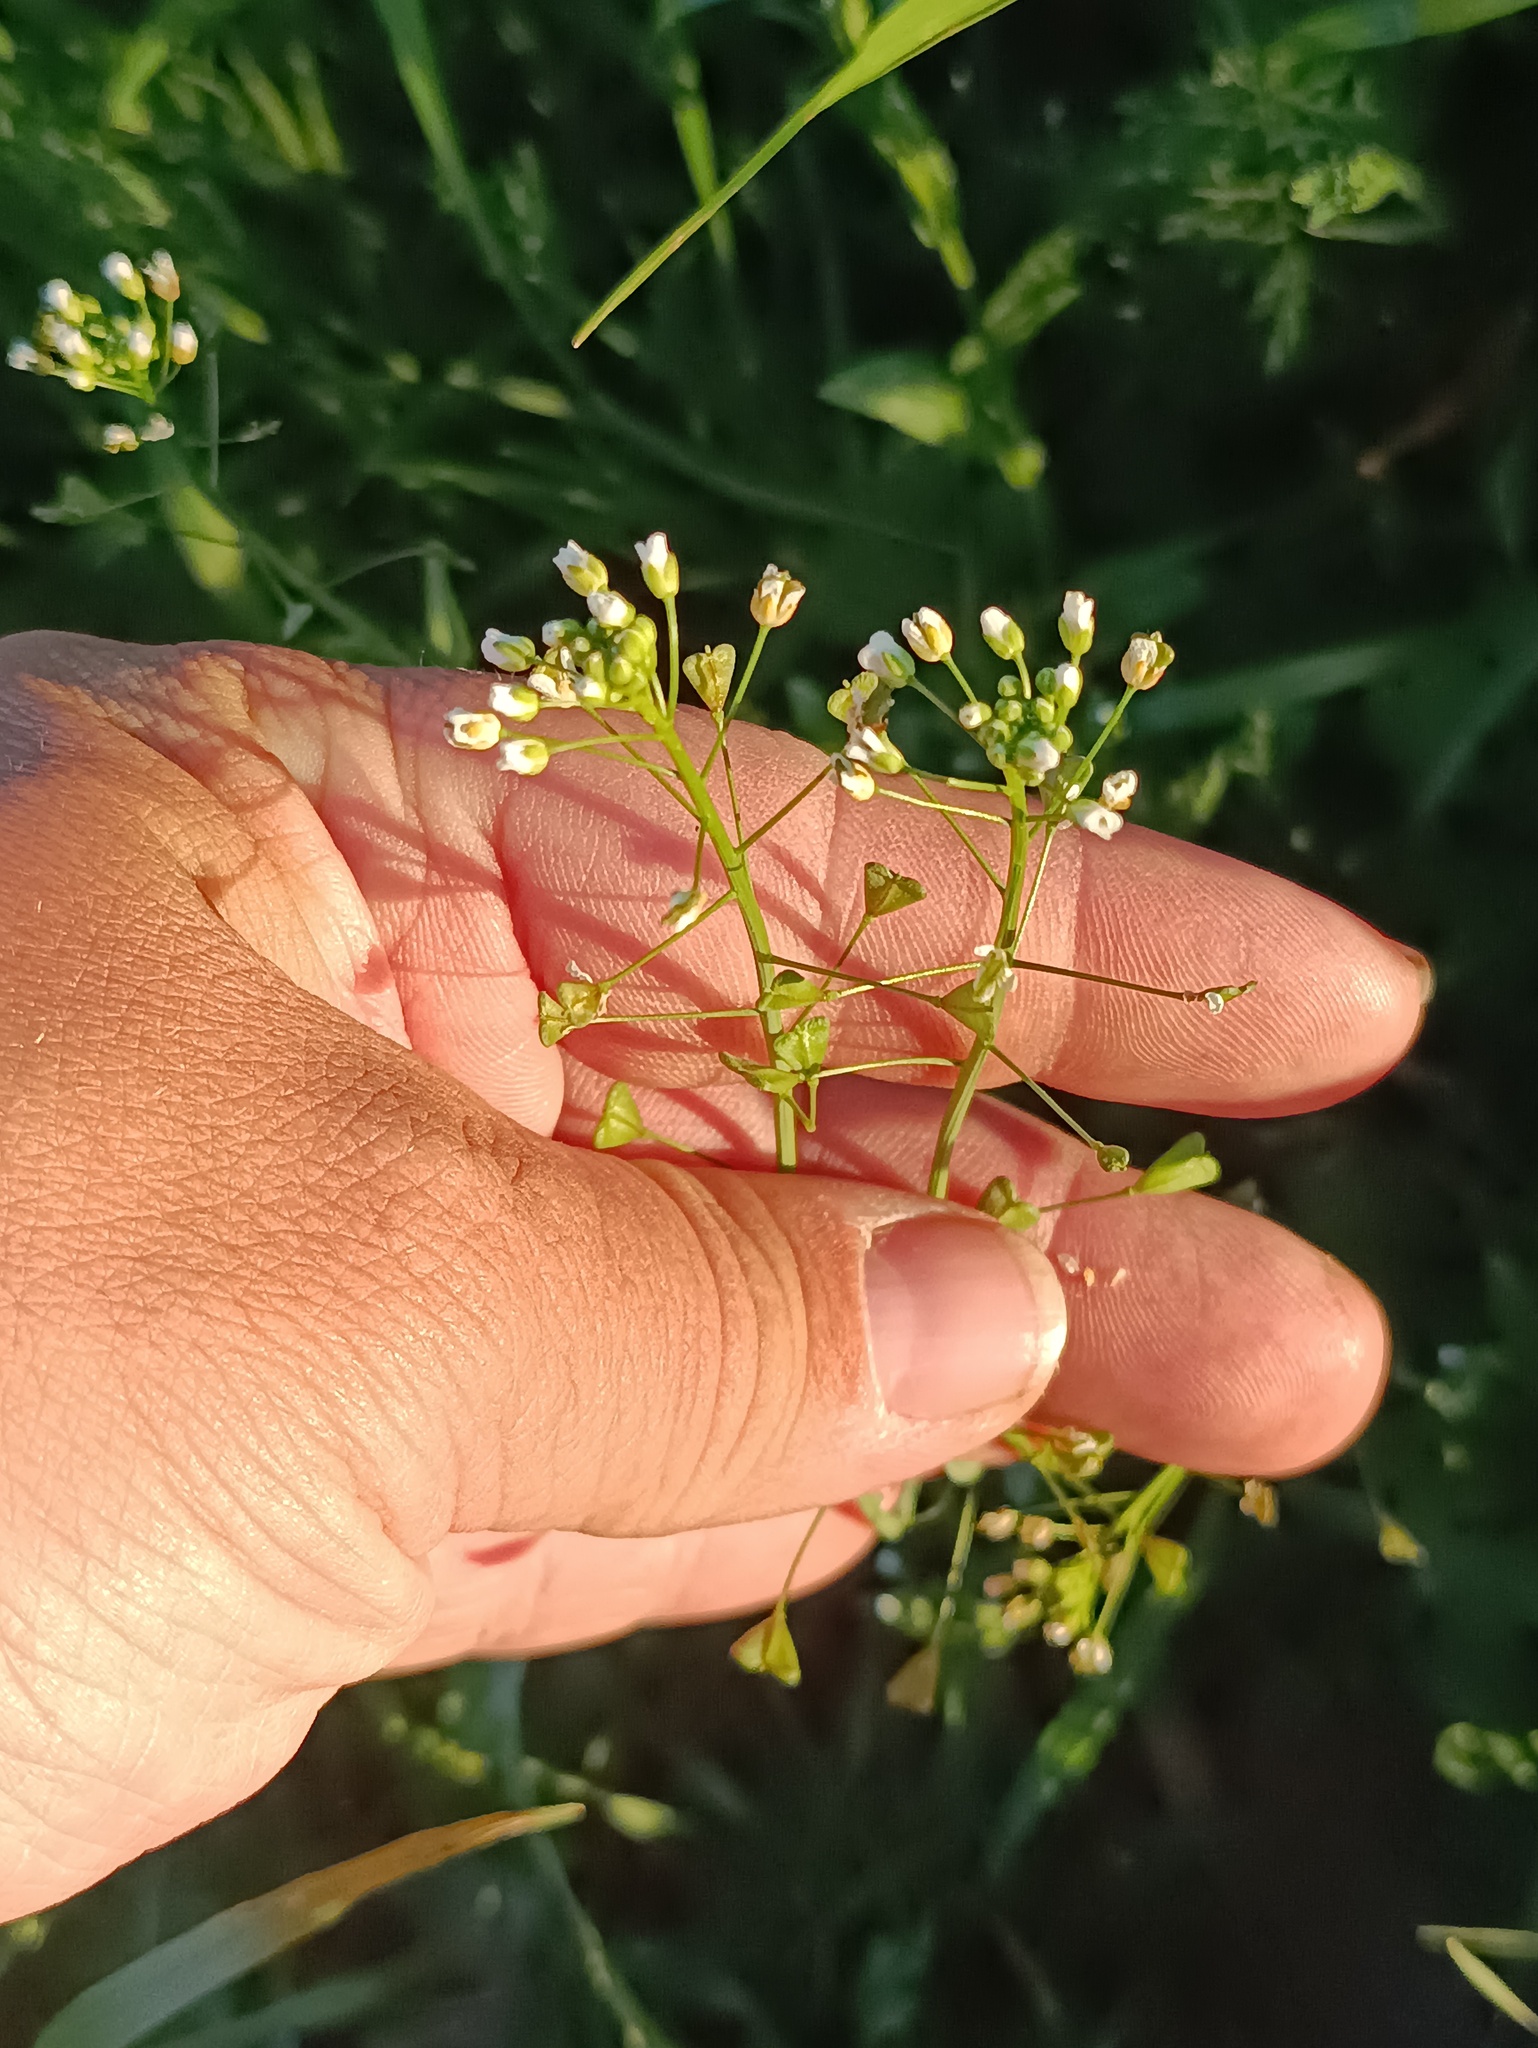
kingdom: Plantae
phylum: Tracheophyta
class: Magnoliopsida
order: Brassicales
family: Brassicaceae
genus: Capsella
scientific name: Capsella bursa-pastoris
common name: Shepherd's purse
